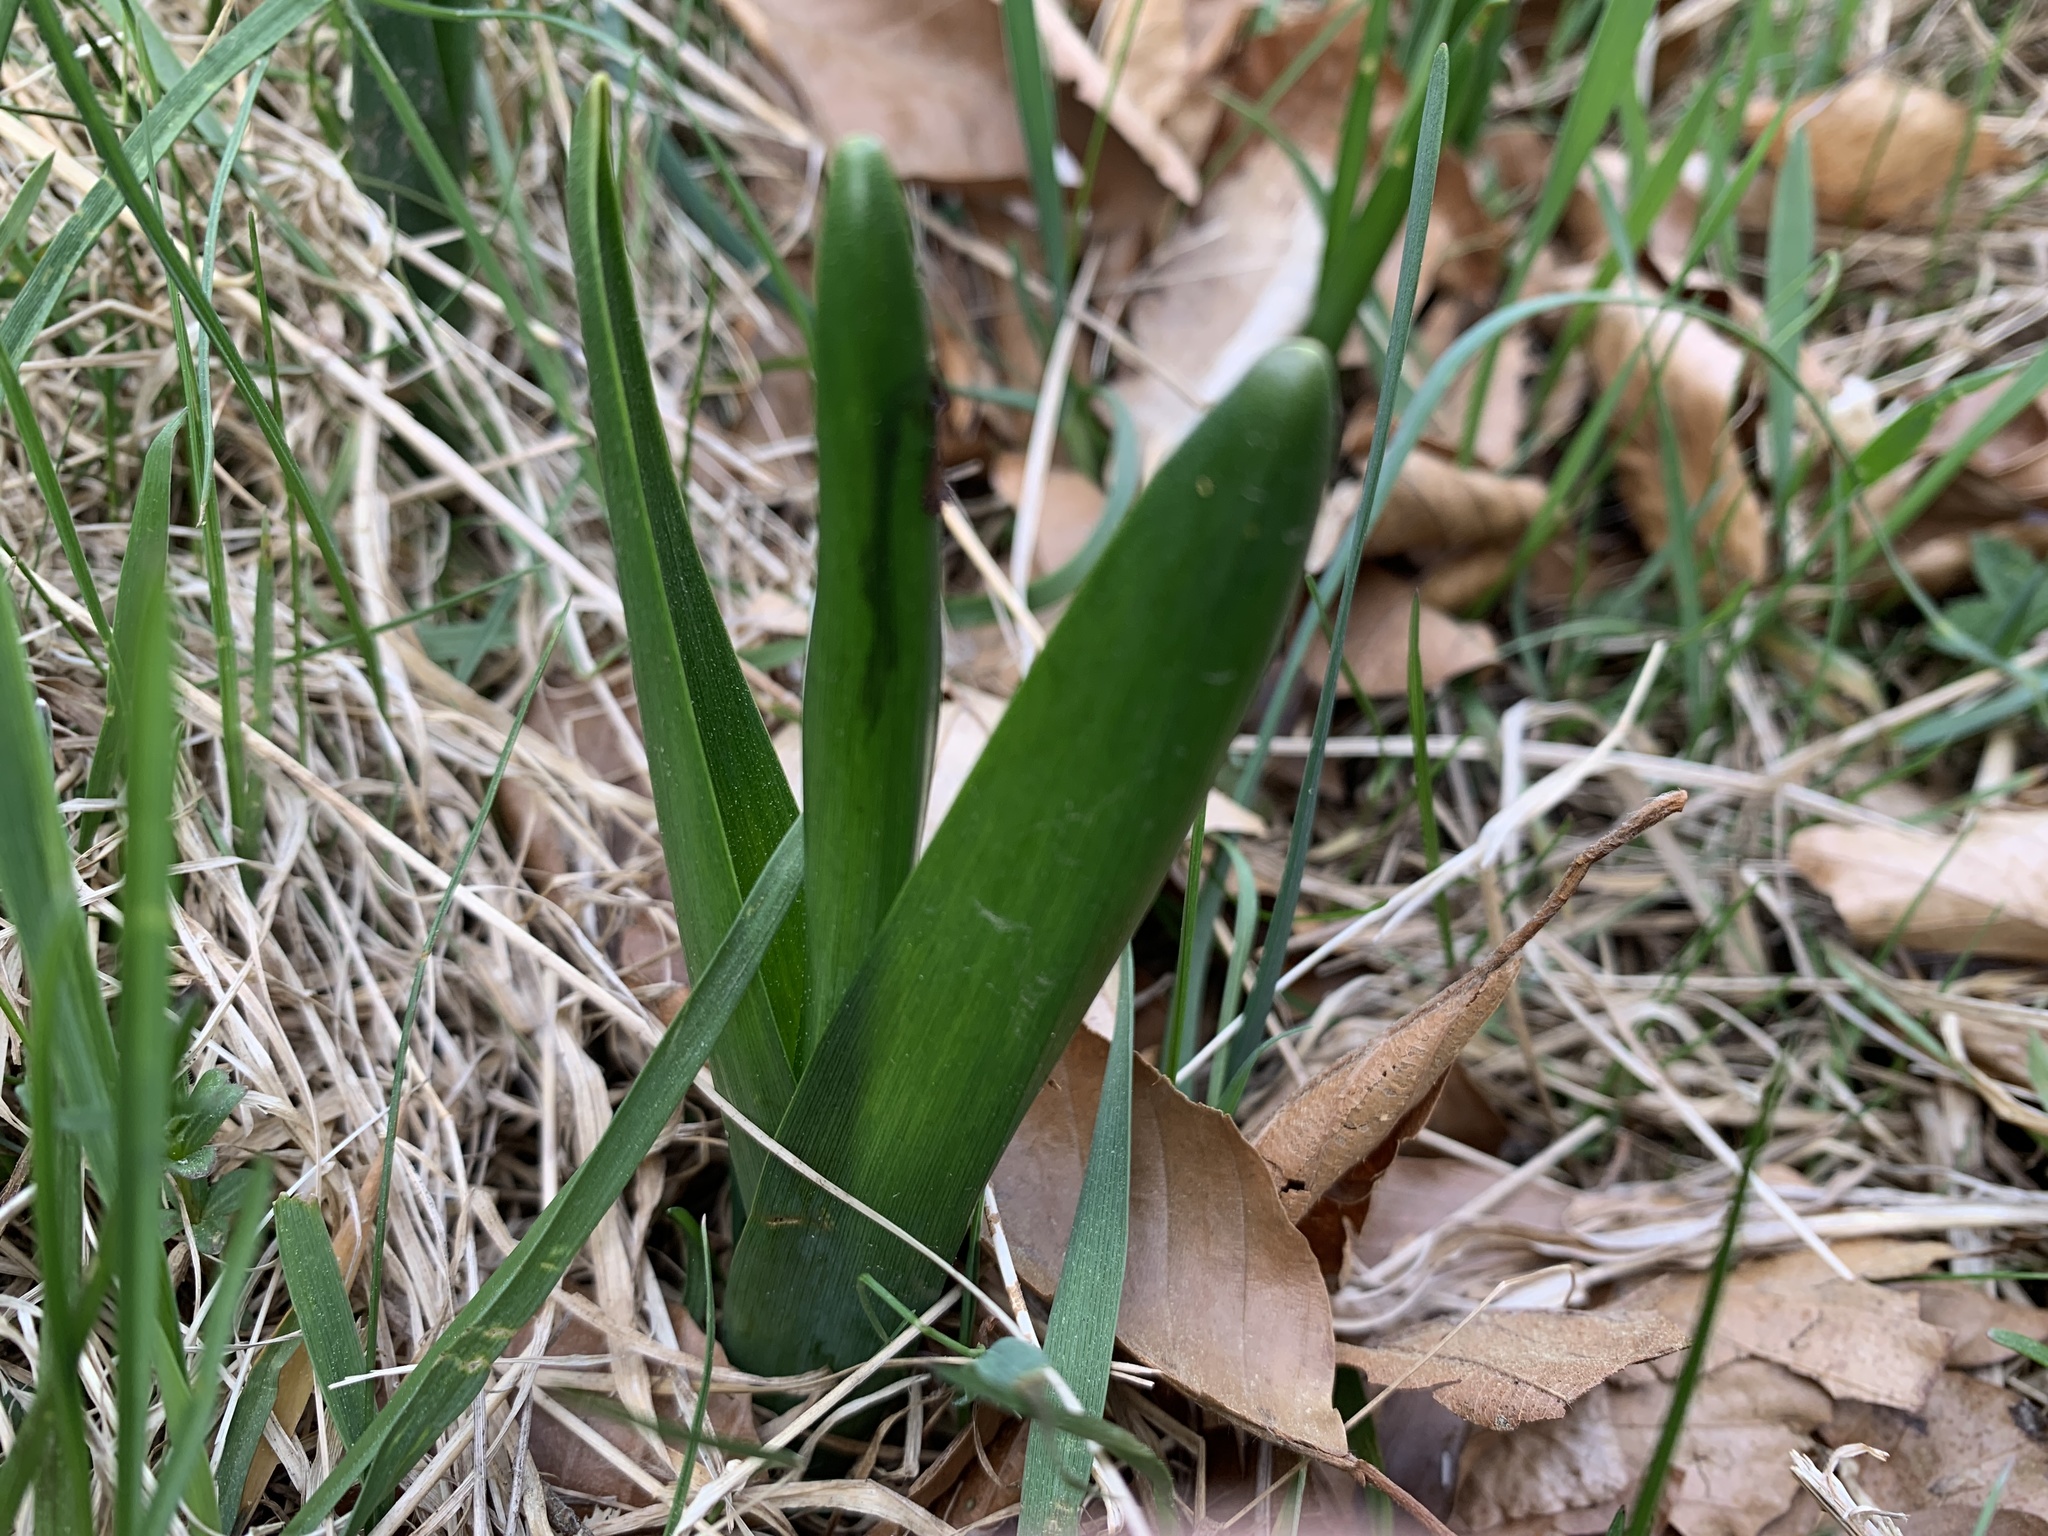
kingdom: Plantae
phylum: Tracheophyta
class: Liliopsida
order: Liliales
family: Colchicaceae
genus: Colchicum
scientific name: Colchicum autumnale
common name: Autumn crocus
